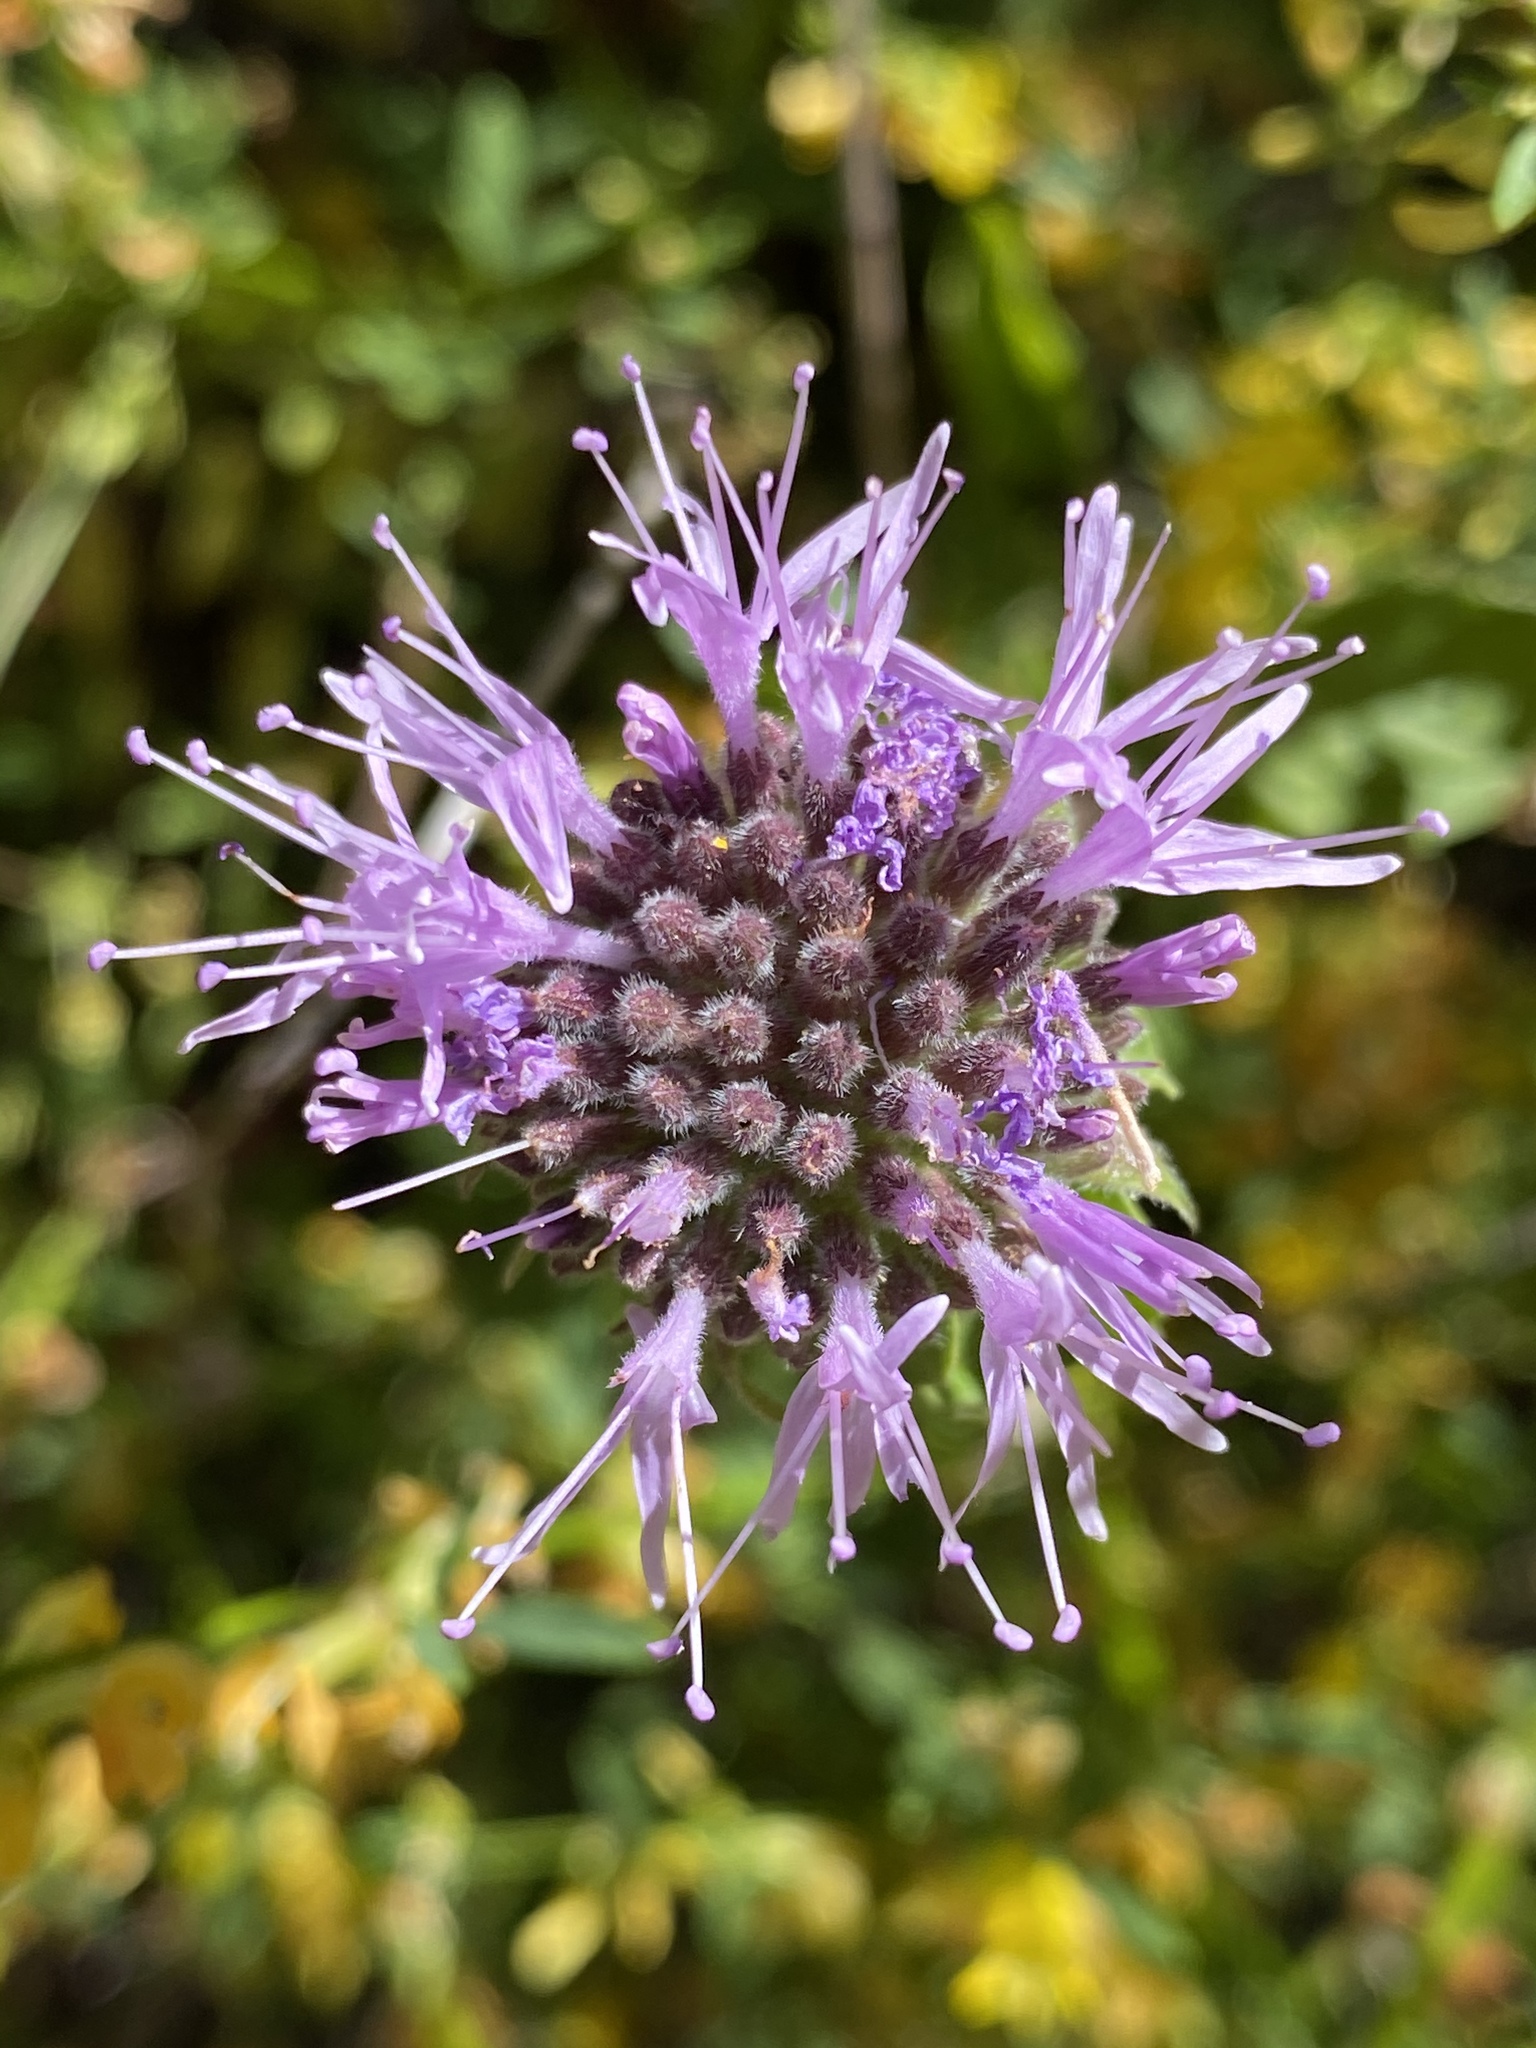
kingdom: Plantae
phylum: Tracheophyta
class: Magnoliopsida
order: Lamiales
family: Lamiaceae
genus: Monardella
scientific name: Monardella odoratissima
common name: Pacific monardella
